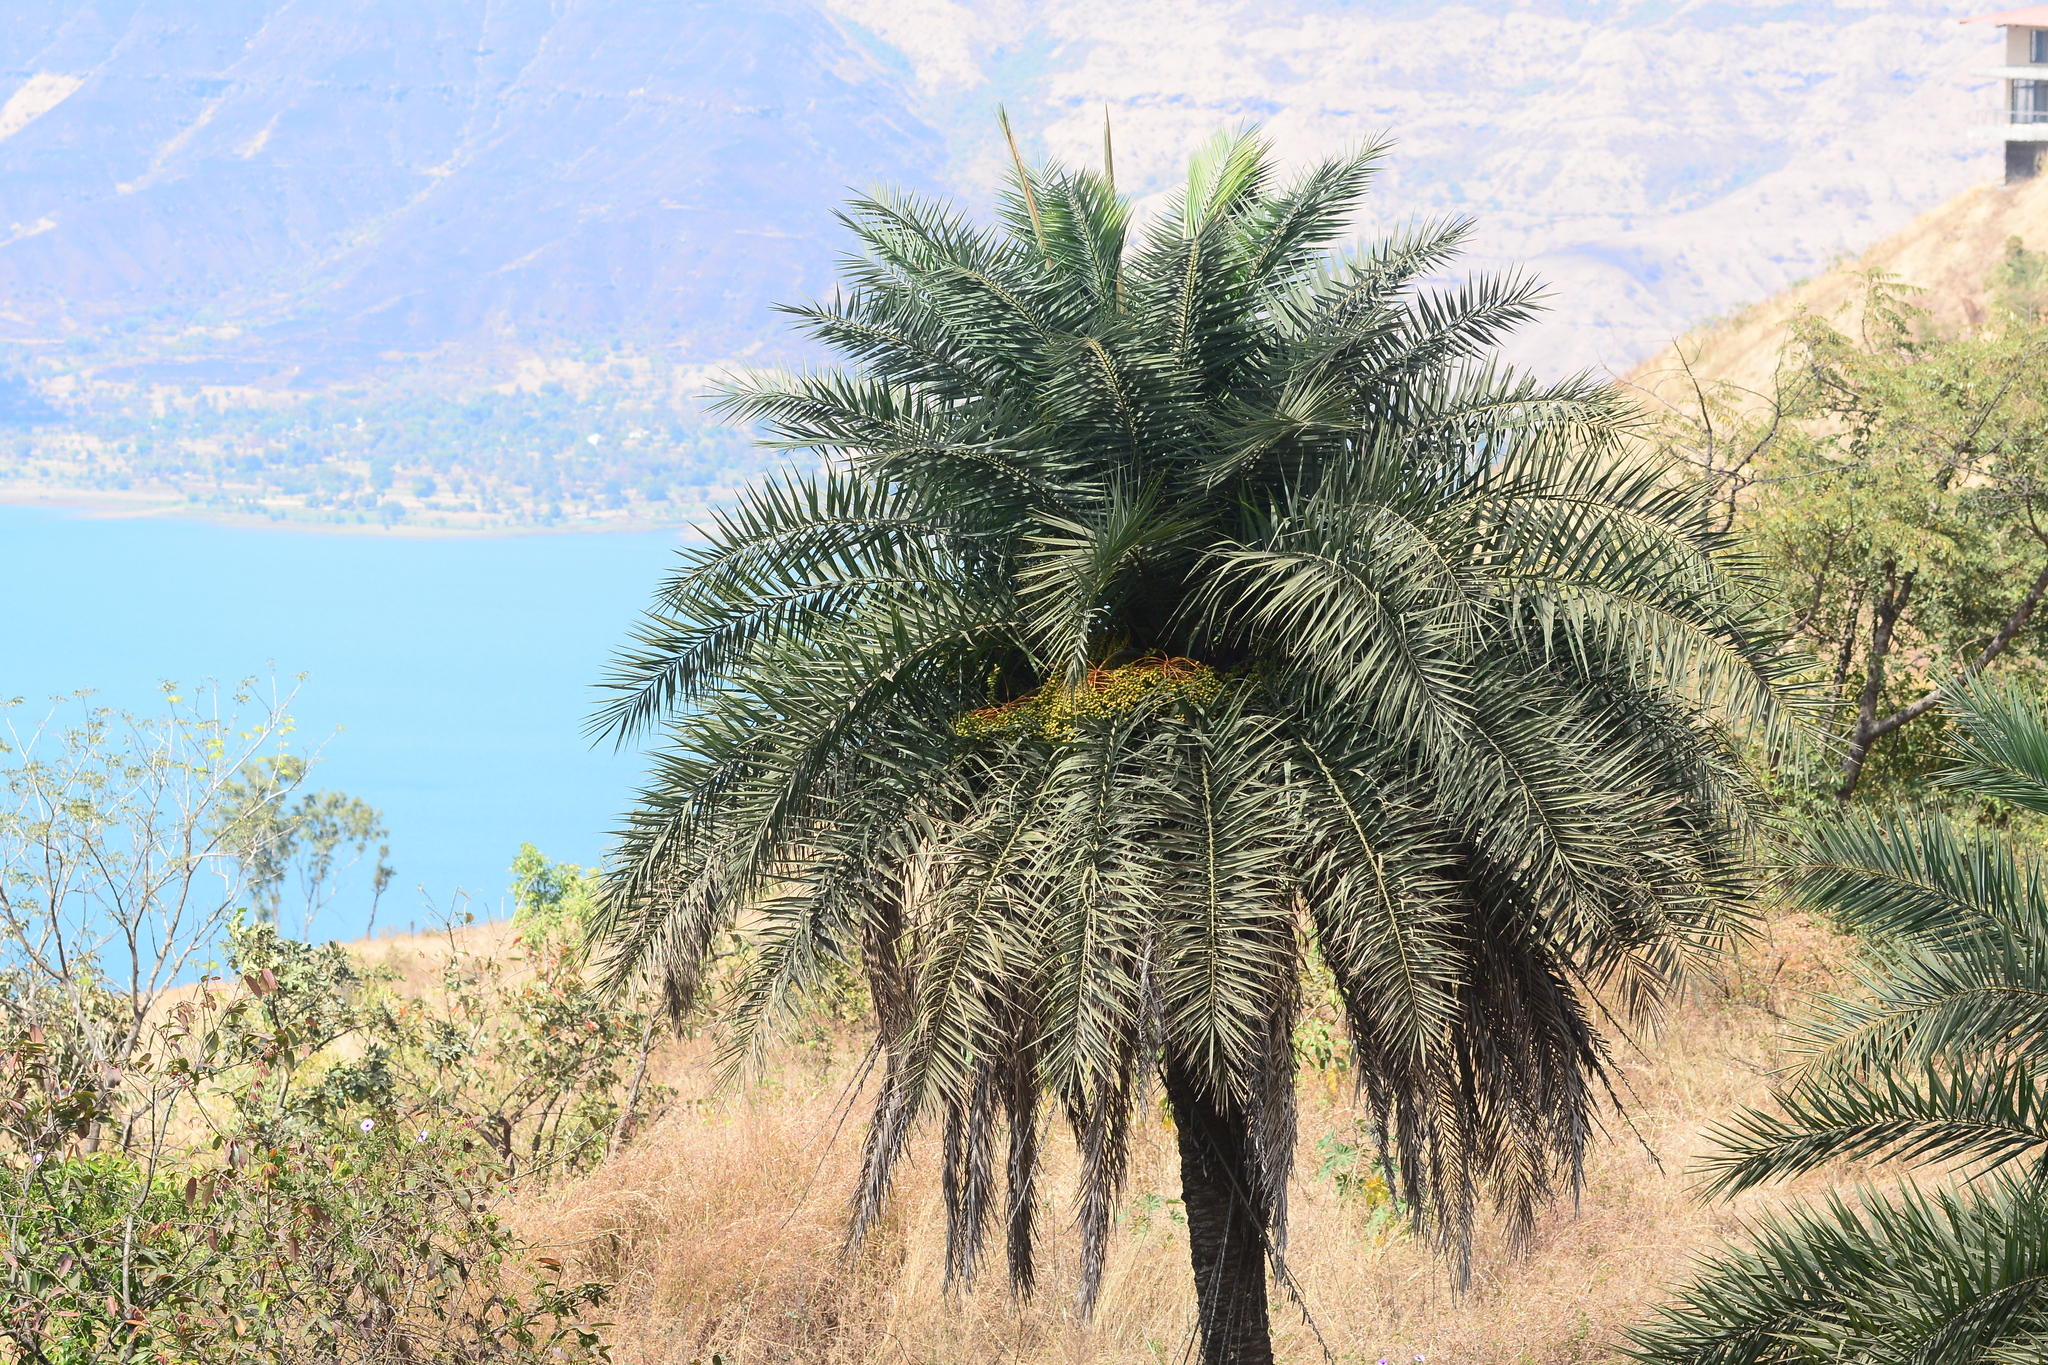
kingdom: Plantae
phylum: Tracheophyta
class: Liliopsida
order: Arecales
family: Arecaceae
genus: Phoenix
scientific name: Phoenix sylvestris
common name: Wild date palm
